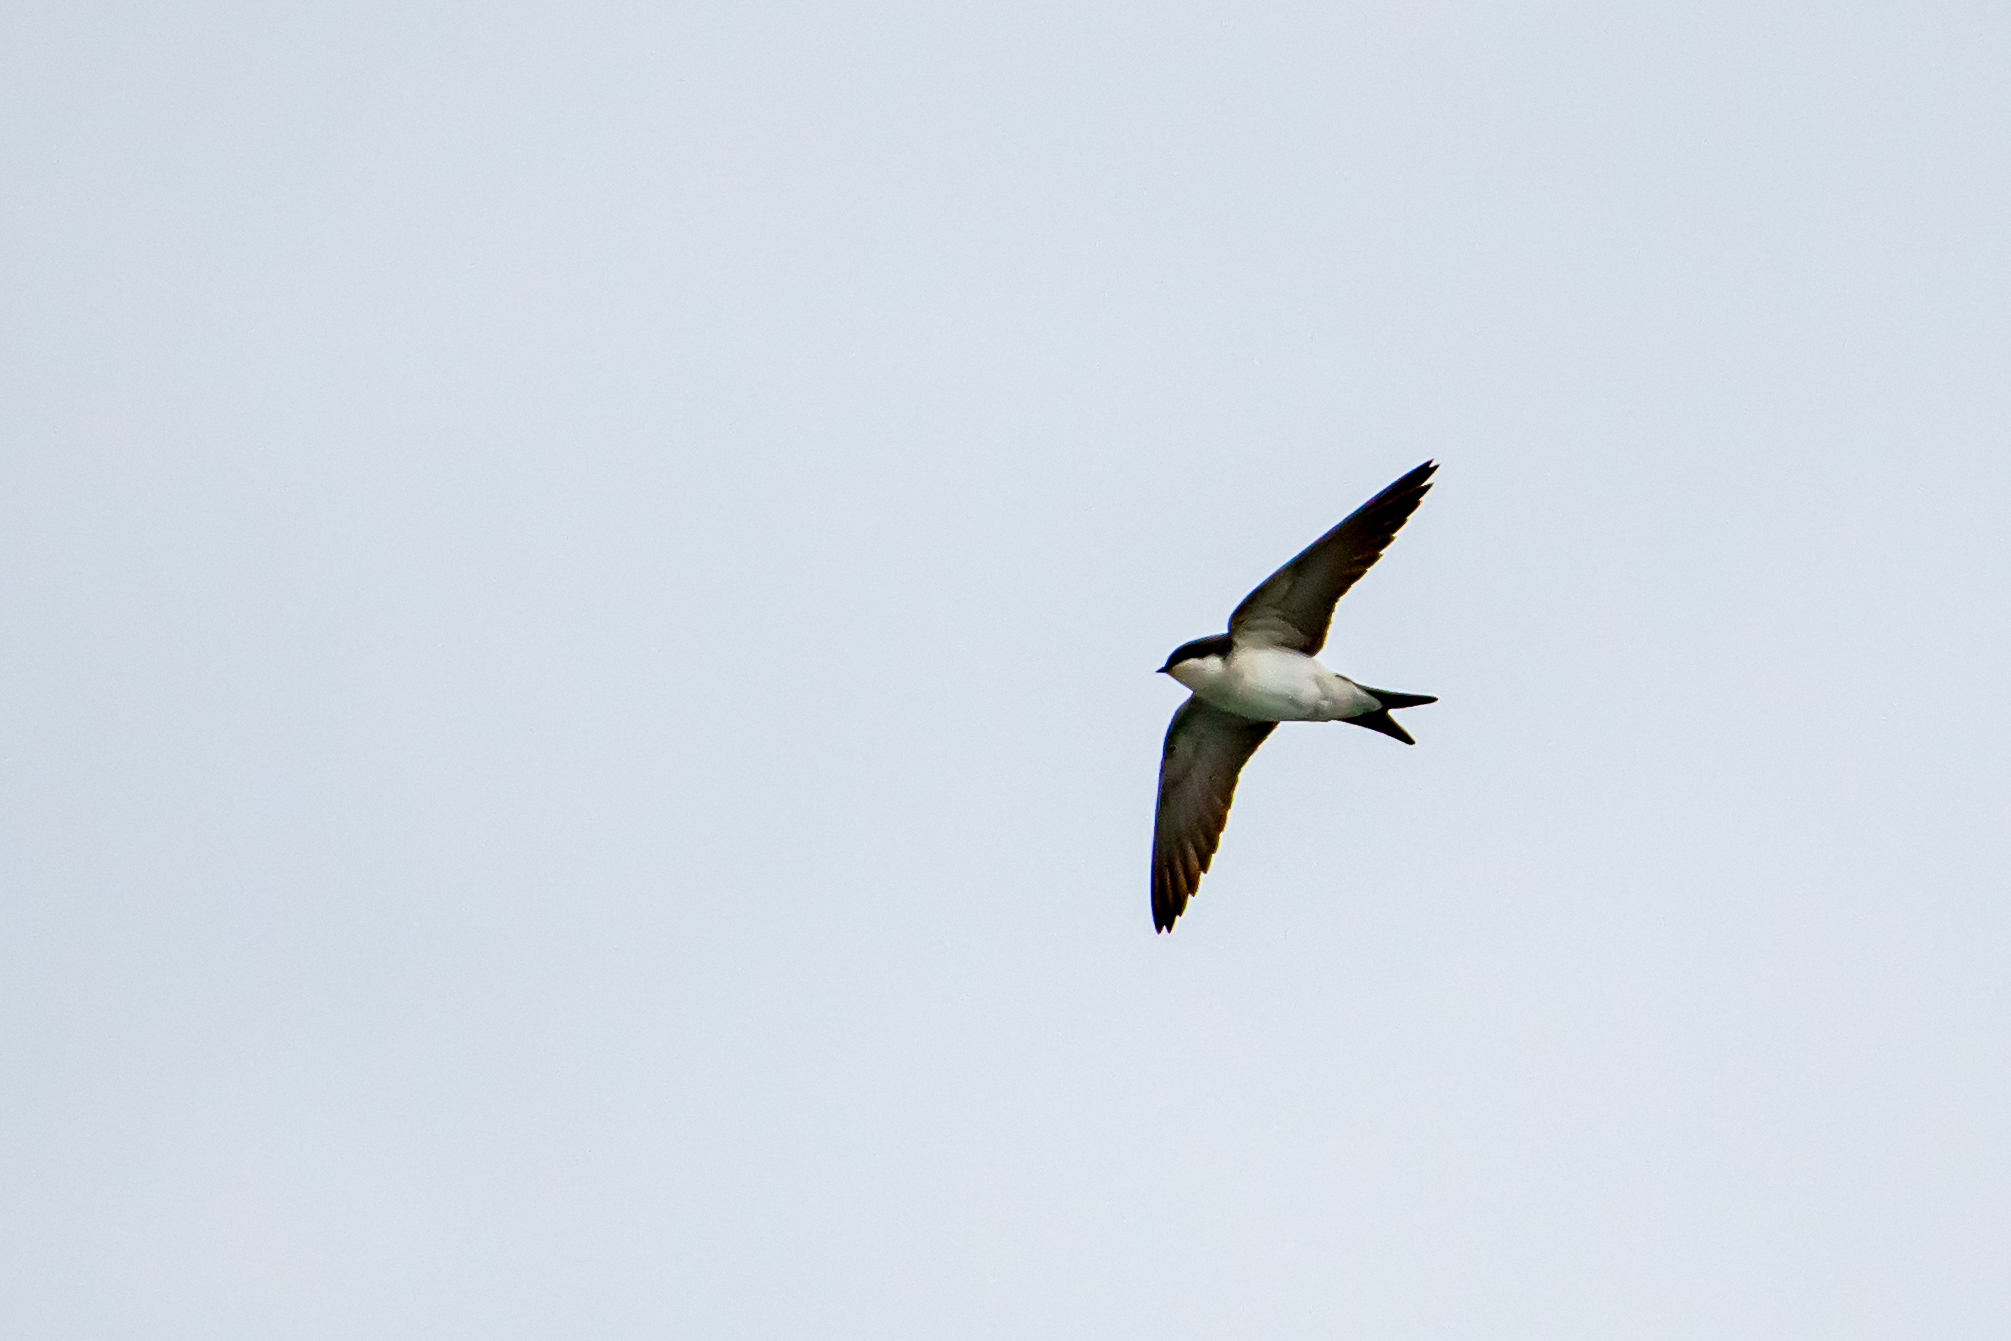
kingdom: Animalia
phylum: Chordata
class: Aves
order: Passeriformes
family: Hirundinidae
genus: Delichon
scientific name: Delichon urbicum
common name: Common house martin
